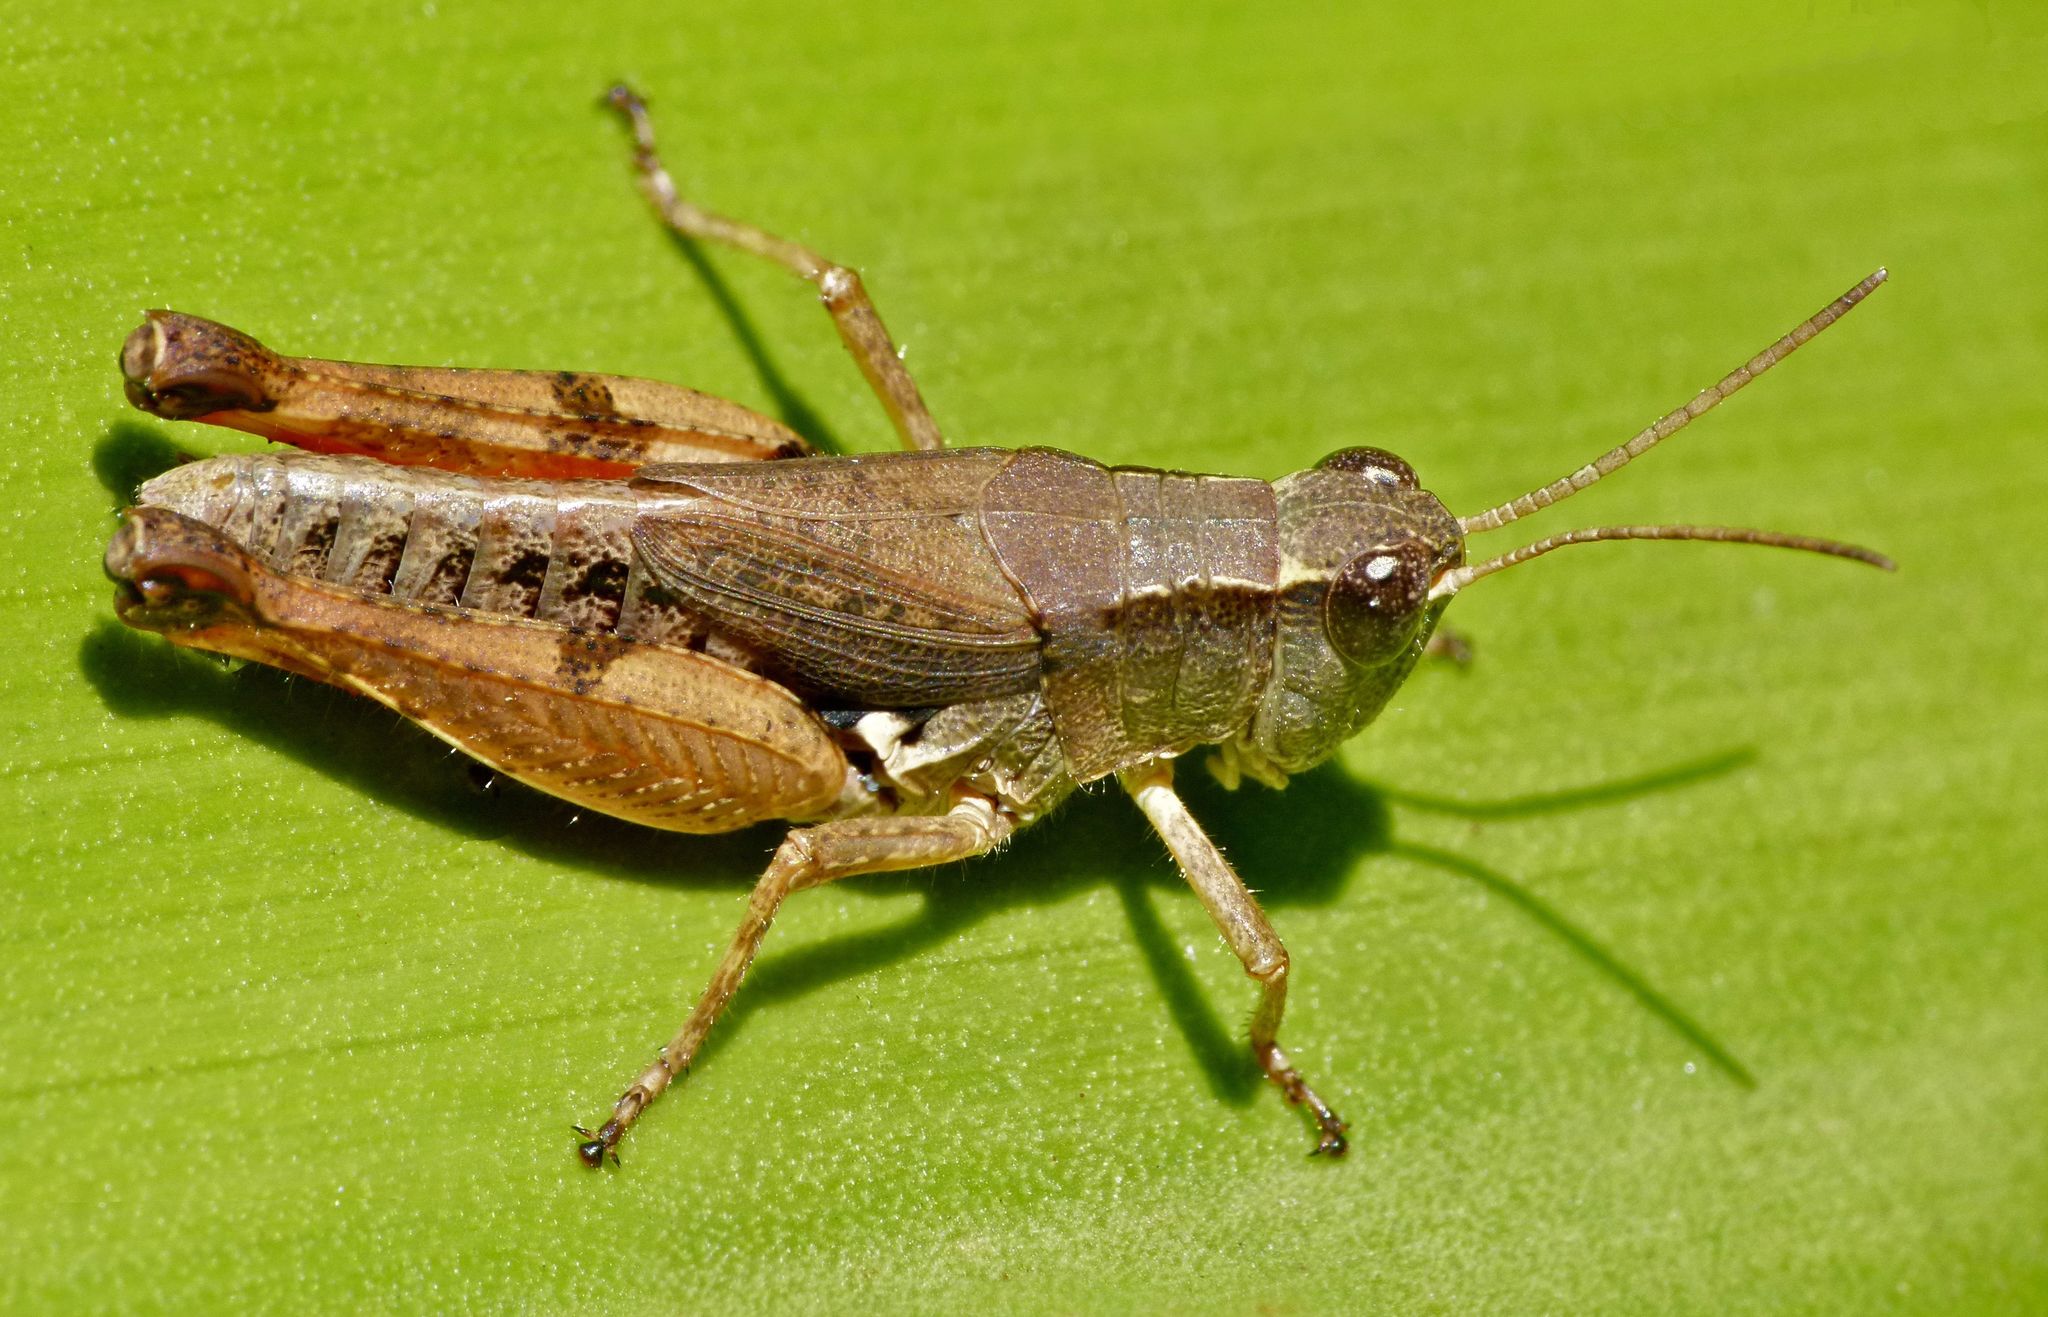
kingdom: Animalia
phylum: Arthropoda
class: Insecta
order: Orthoptera
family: Acrididae
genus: Phaulacridium
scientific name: Phaulacridium vittatum
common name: Wingless grasshopper
